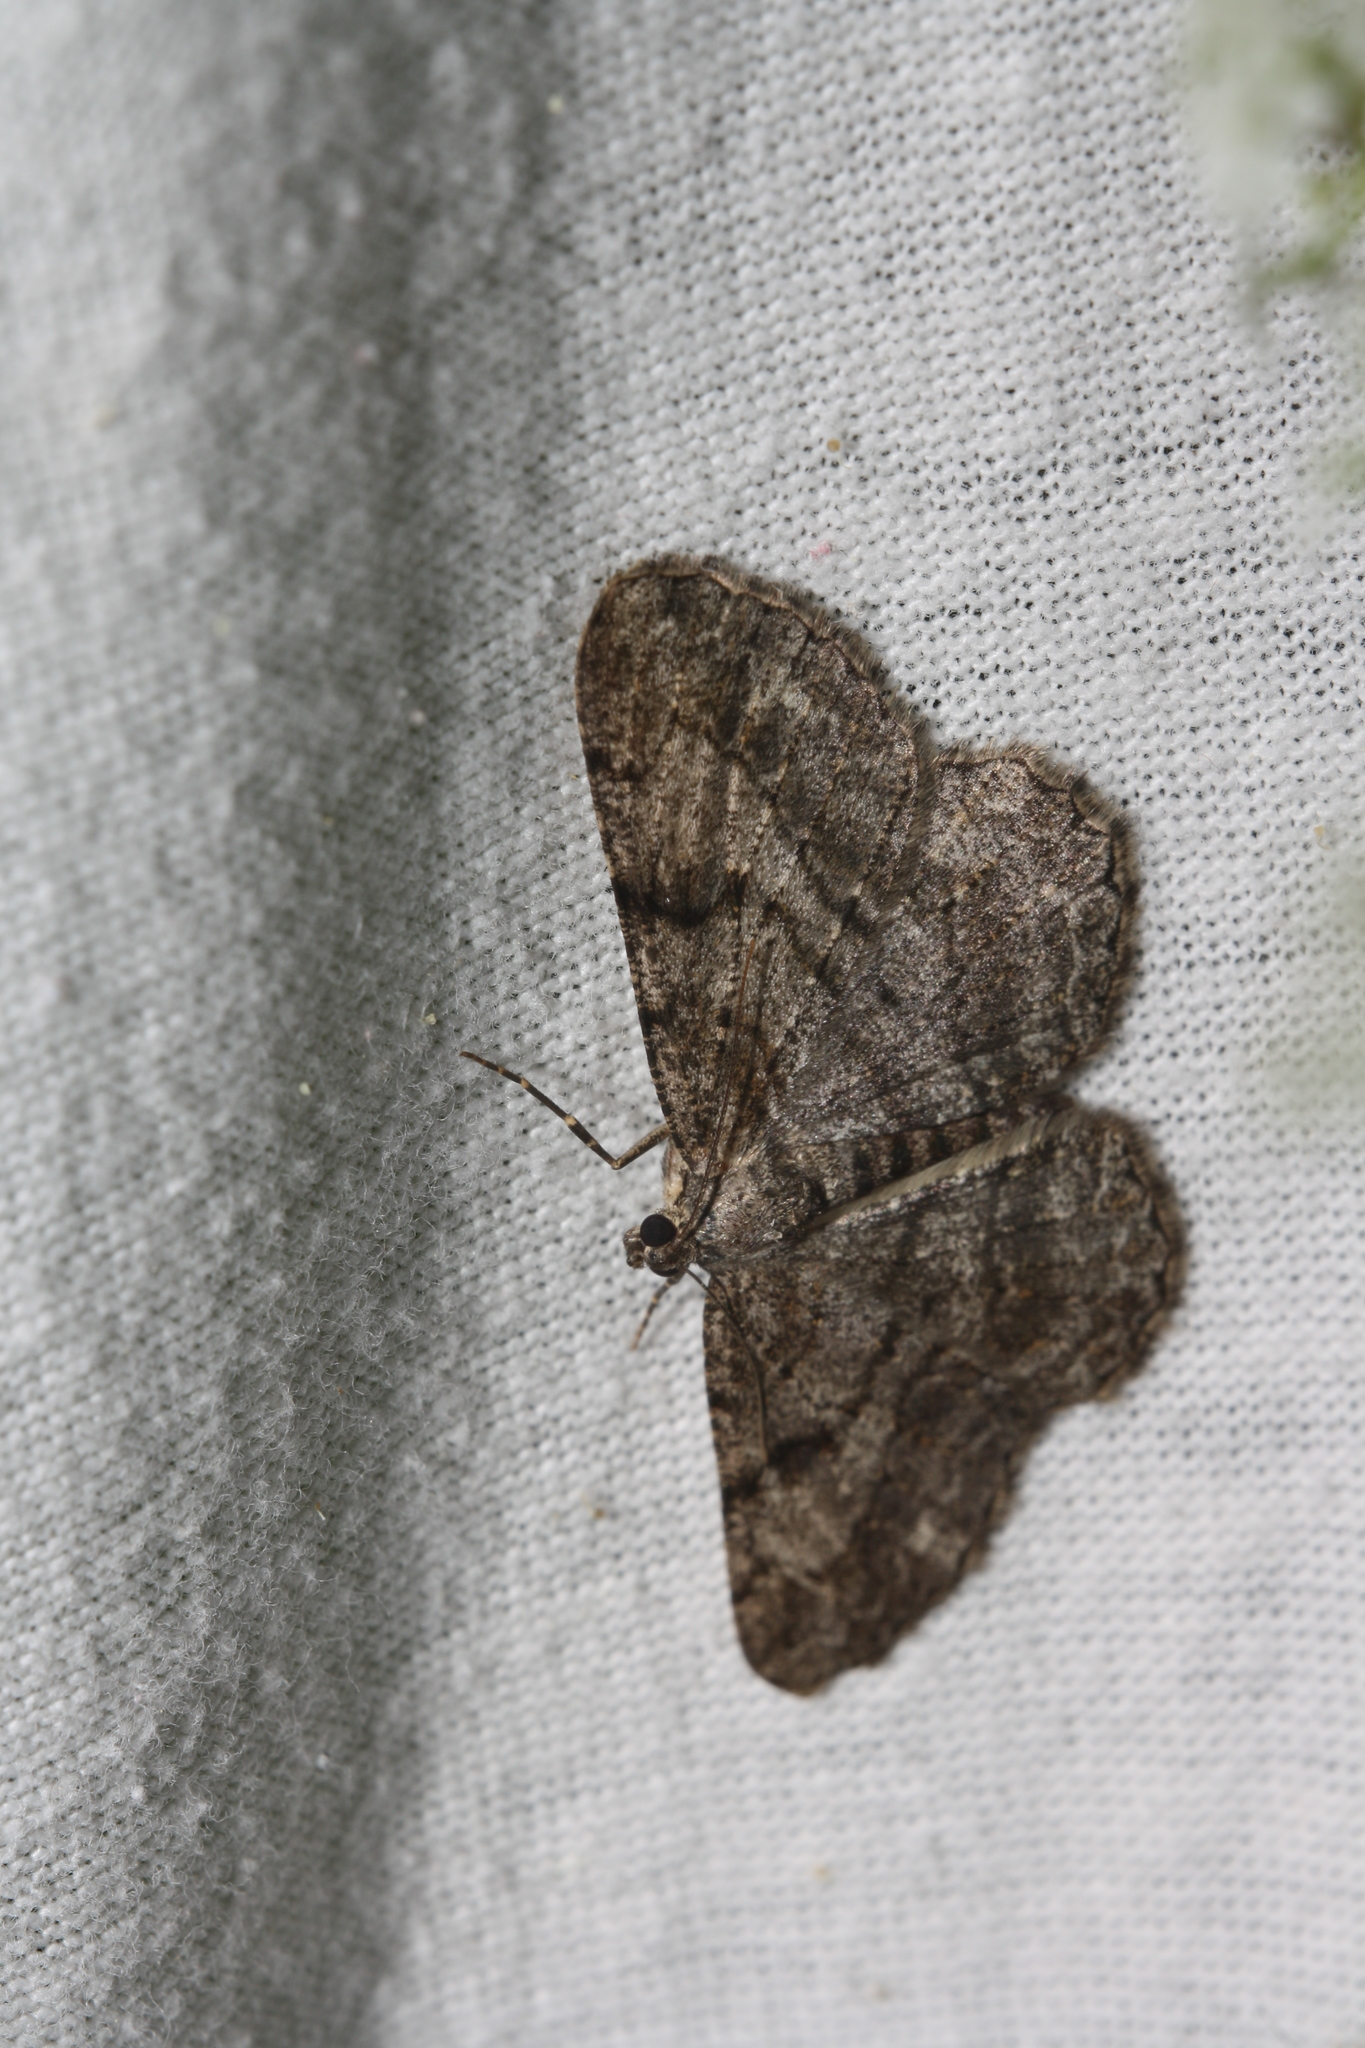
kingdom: Animalia
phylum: Arthropoda
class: Insecta
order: Lepidoptera
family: Geometridae
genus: Peribatodes
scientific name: Peribatodes rhomboidaria
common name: Willow beauty
